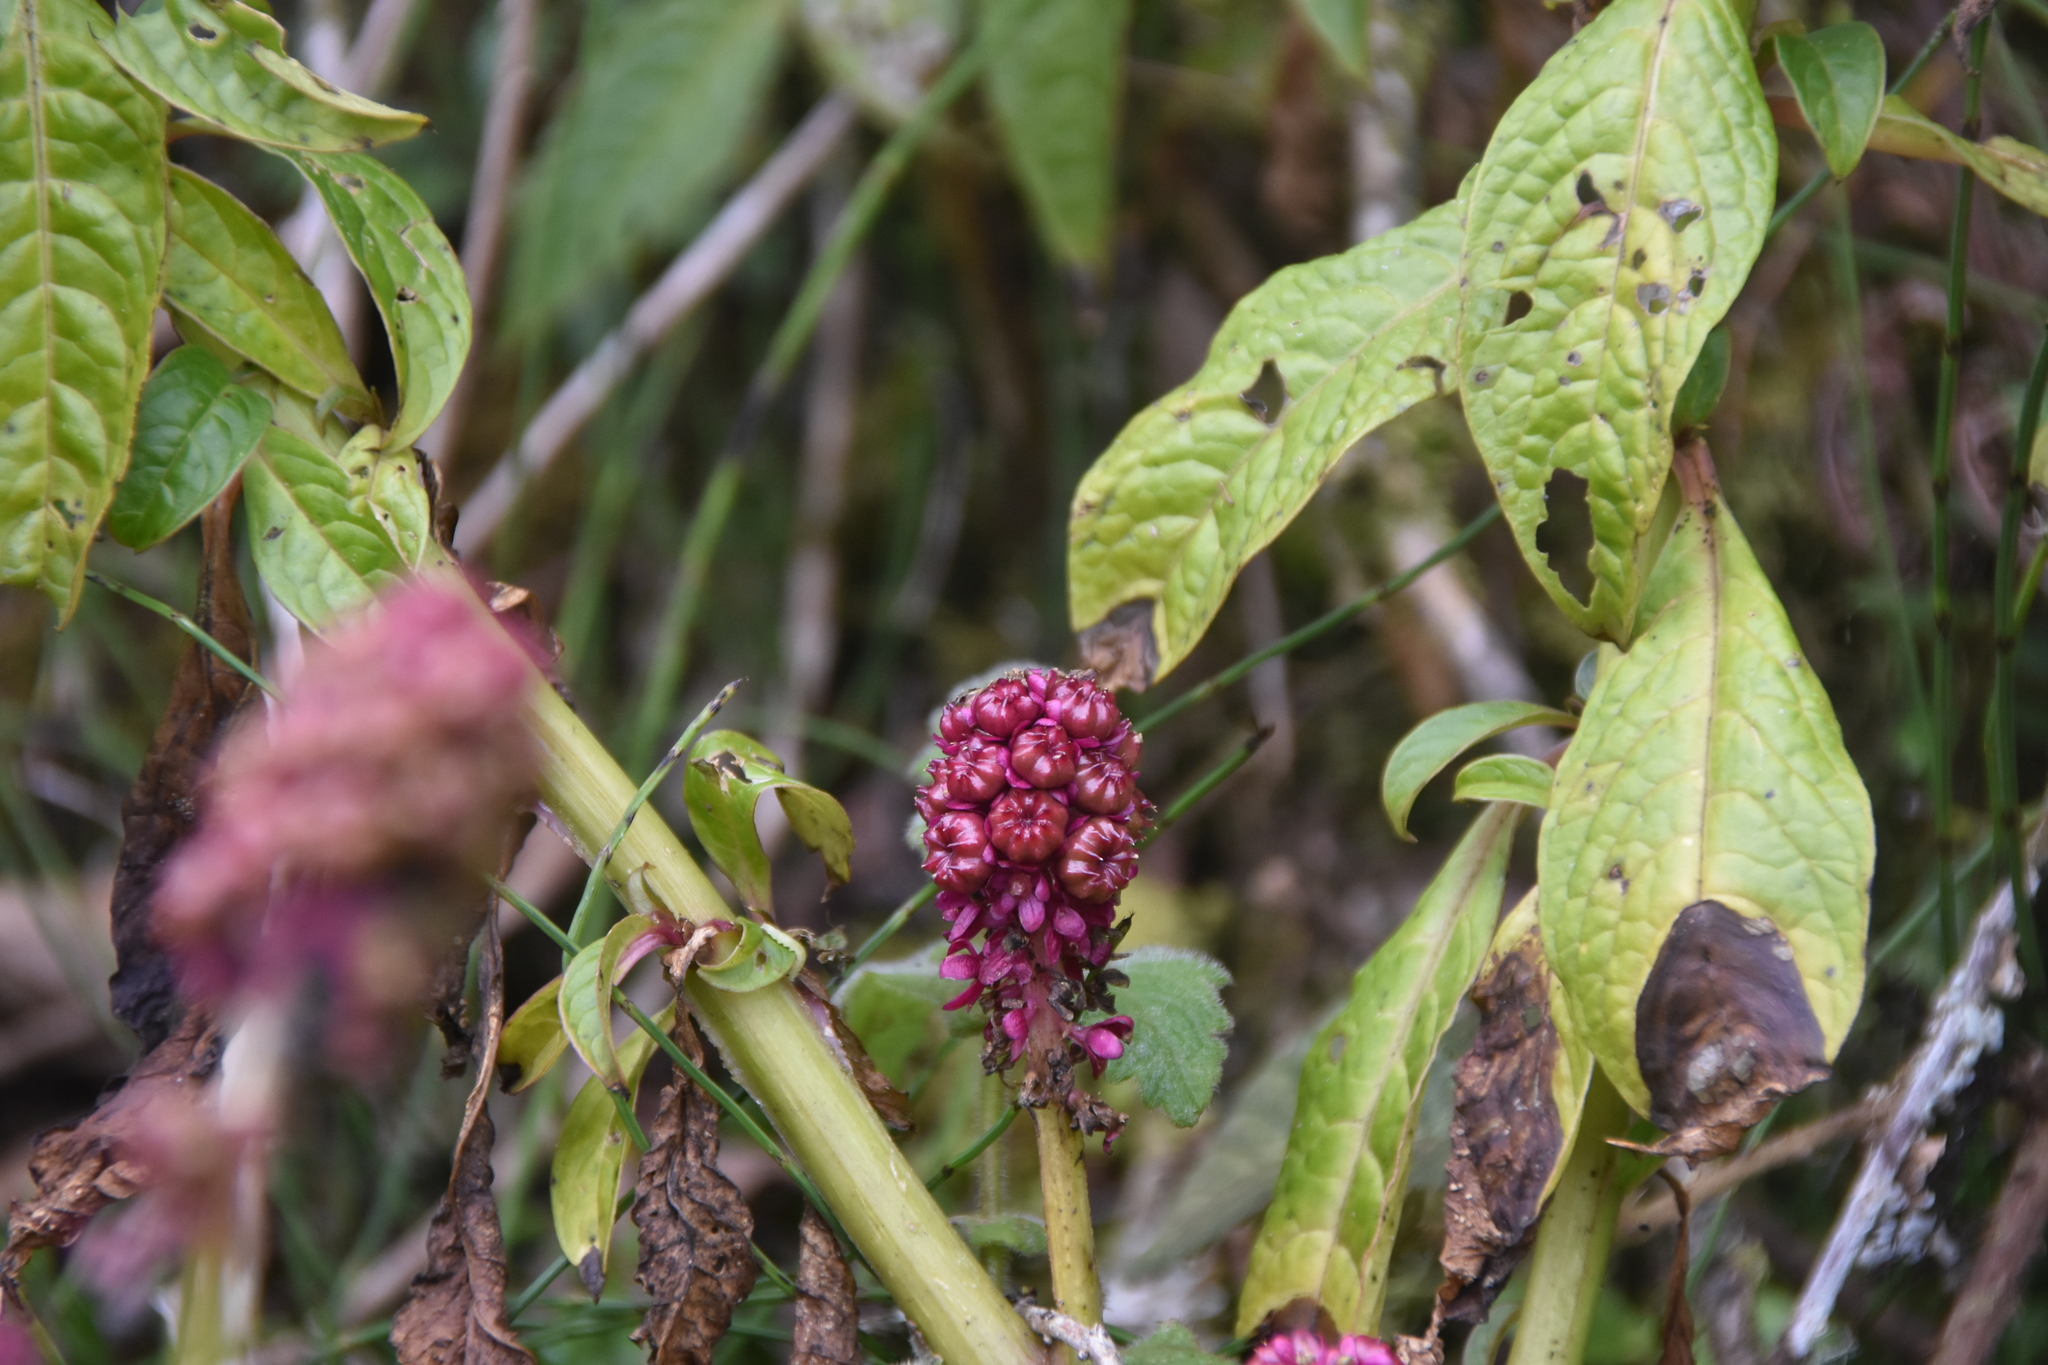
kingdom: Plantae
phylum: Tracheophyta
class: Magnoliopsida
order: Caryophyllales
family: Phytolaccaceae
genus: Phytolacca
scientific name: Phytolacca bogotensis
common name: Southern pokeweed
